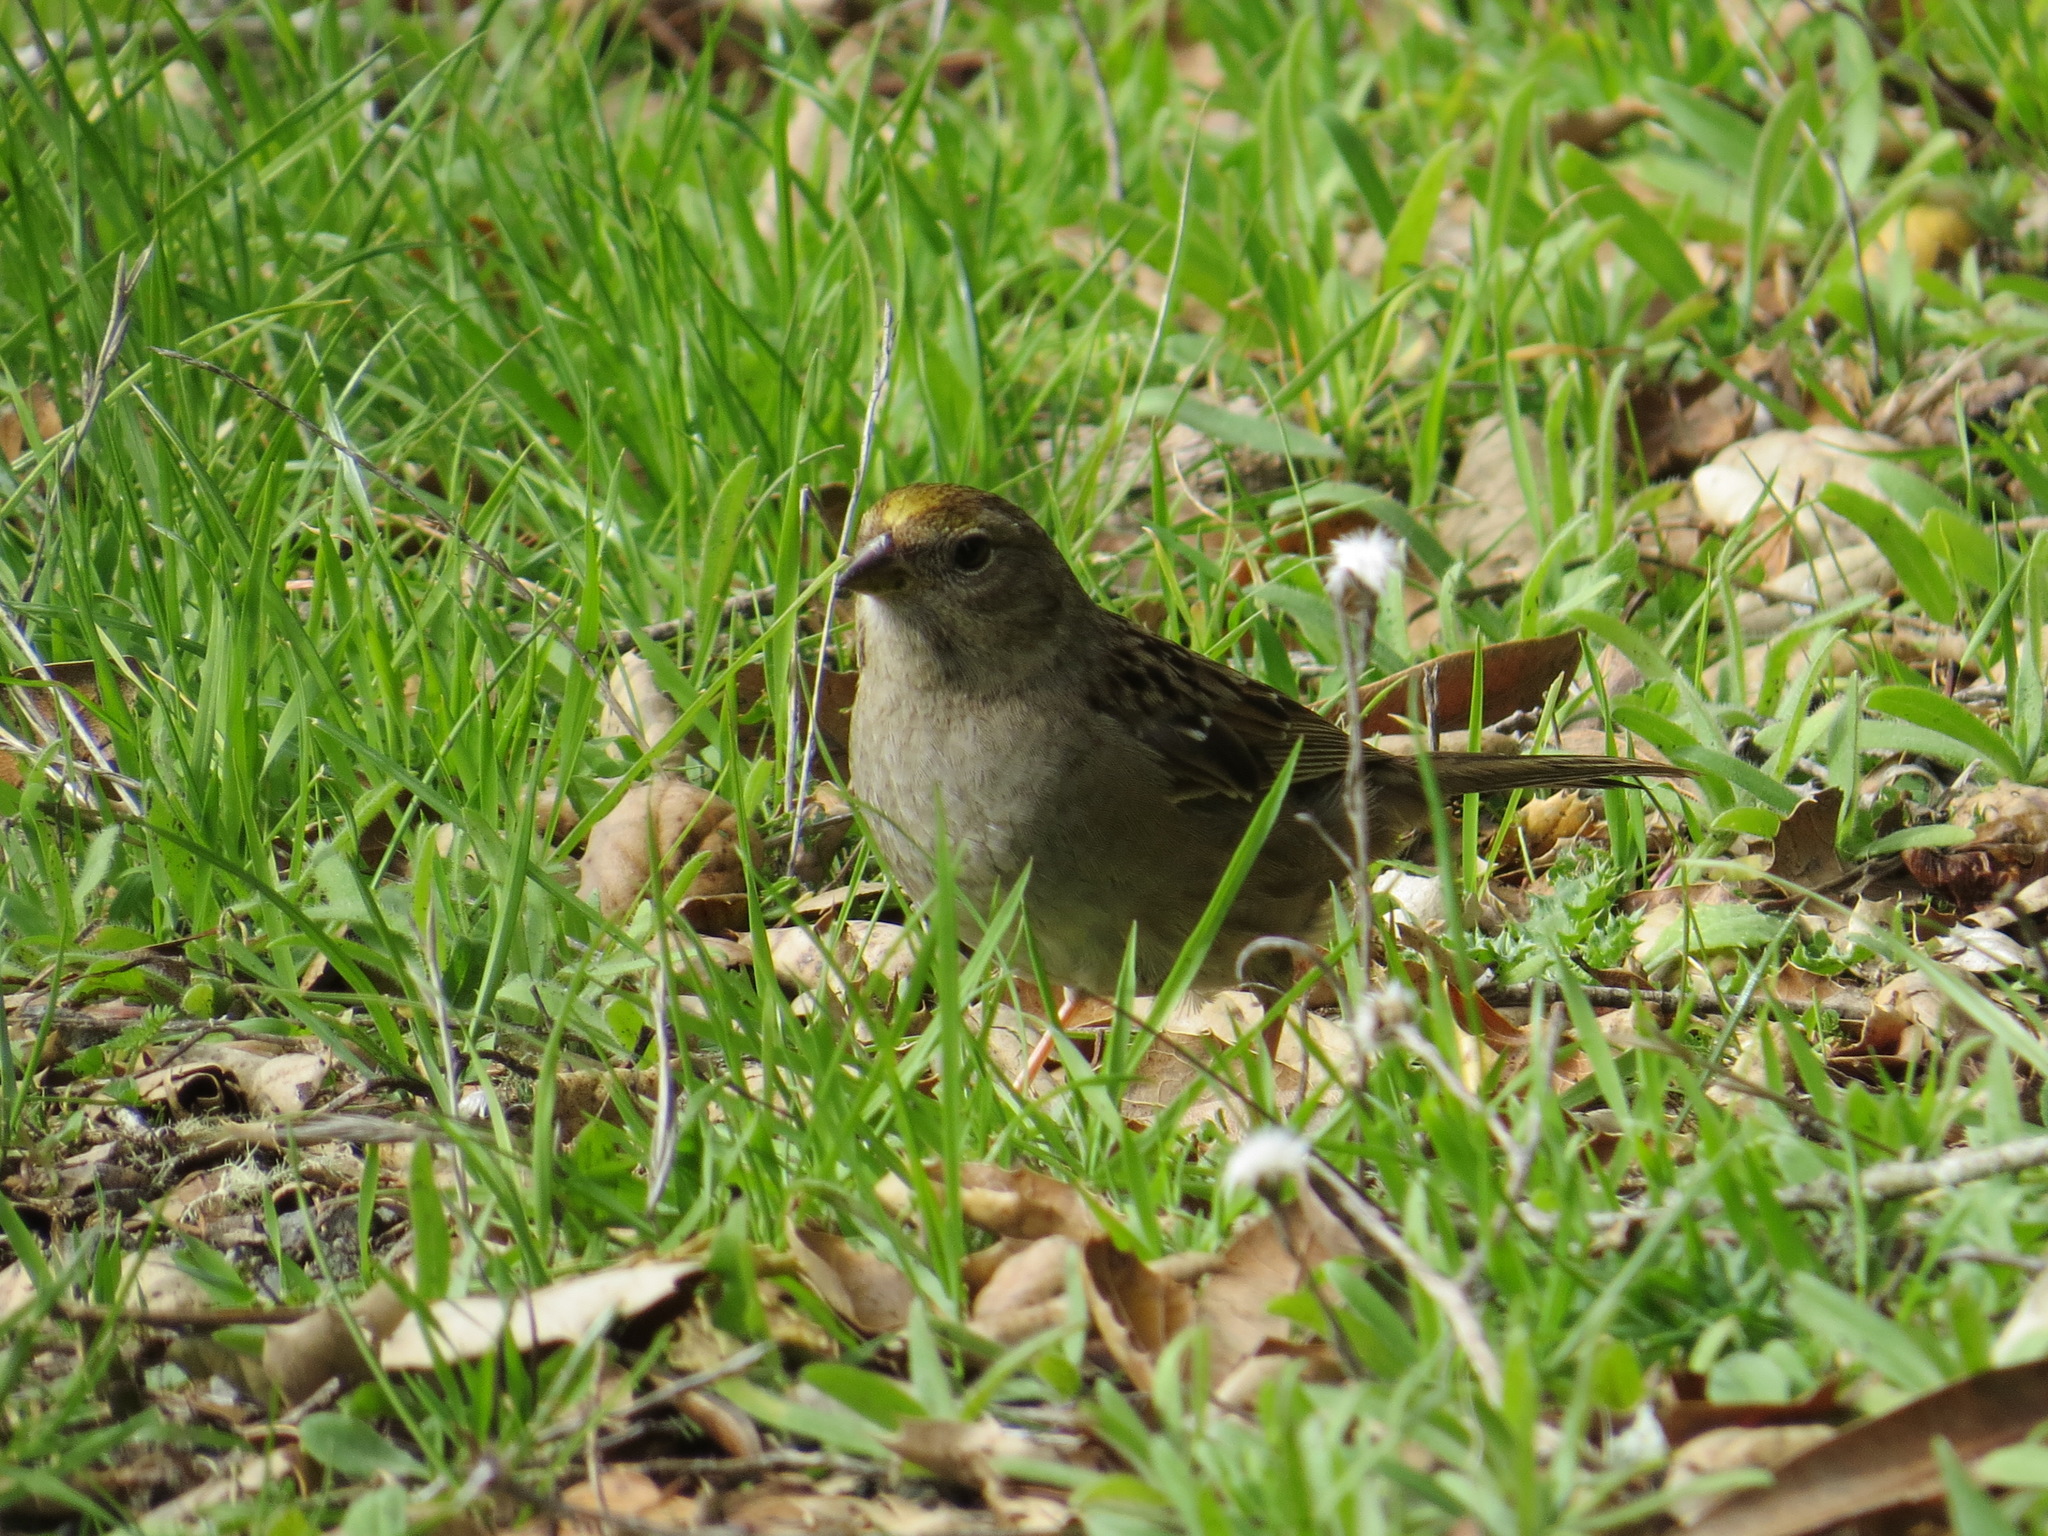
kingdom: Animalia
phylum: Chordata
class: Aves
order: Passeriformes
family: Passerellidae
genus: Zonotrichia
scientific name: Zonotrichia atricapilla
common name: Golden-crowned sparrow
